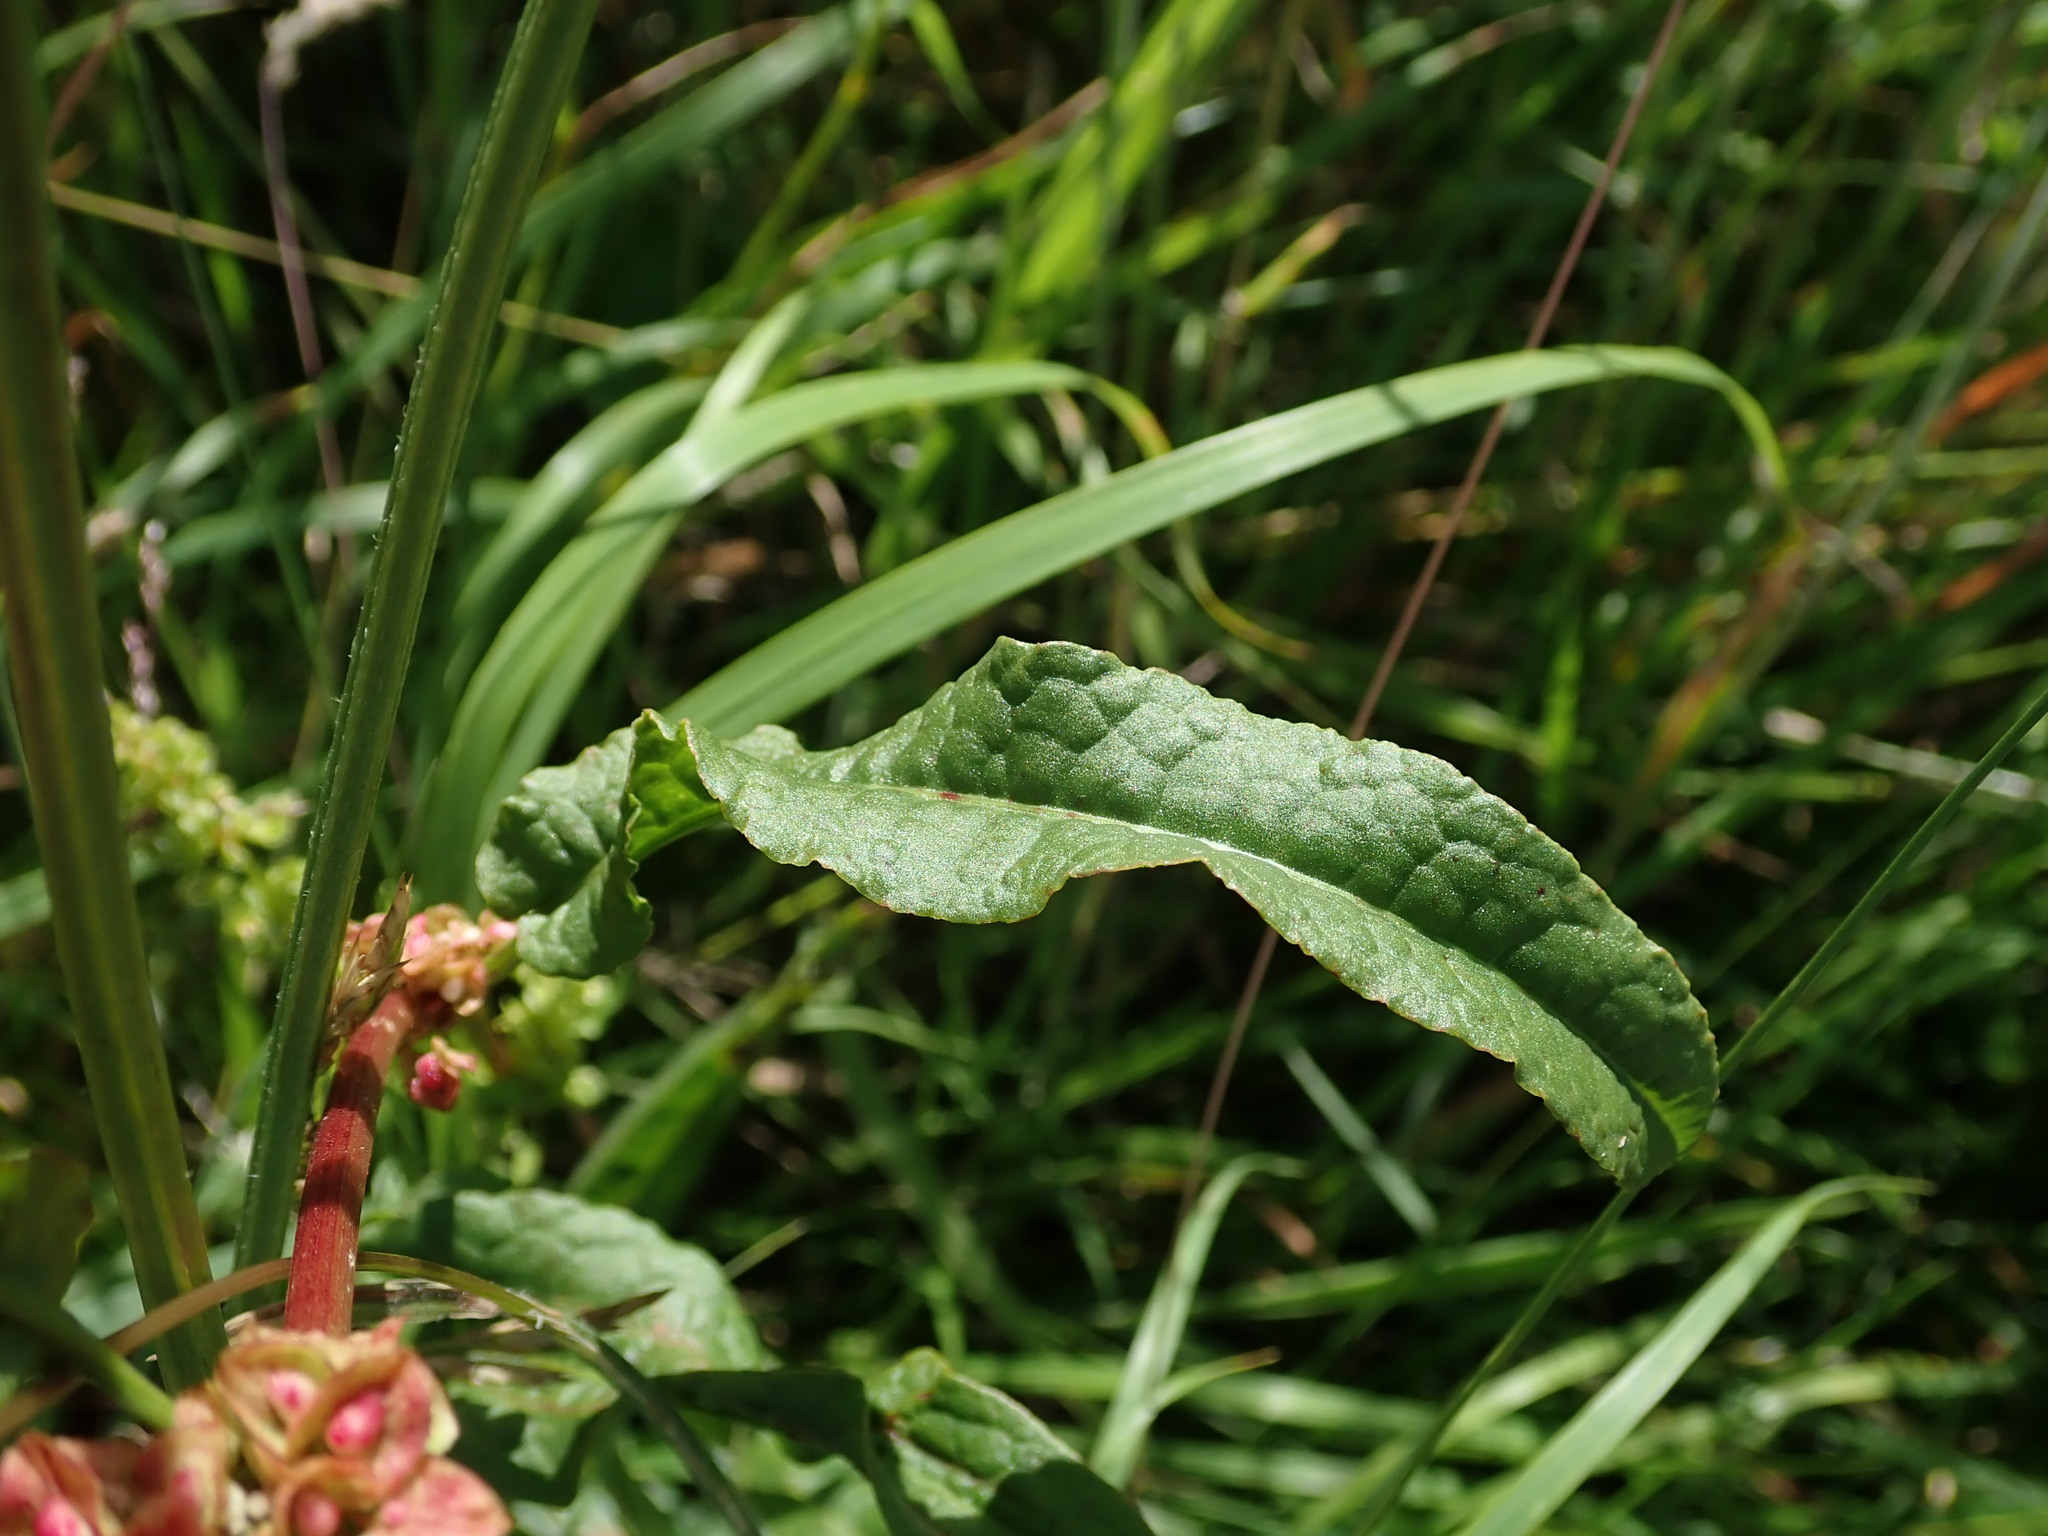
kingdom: Plantae
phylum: Tracheophyta
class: Magnoliopsida
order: Caryophyllales
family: Polygonaceae
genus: Rumex
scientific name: Rumex crispus
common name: Curled dock
